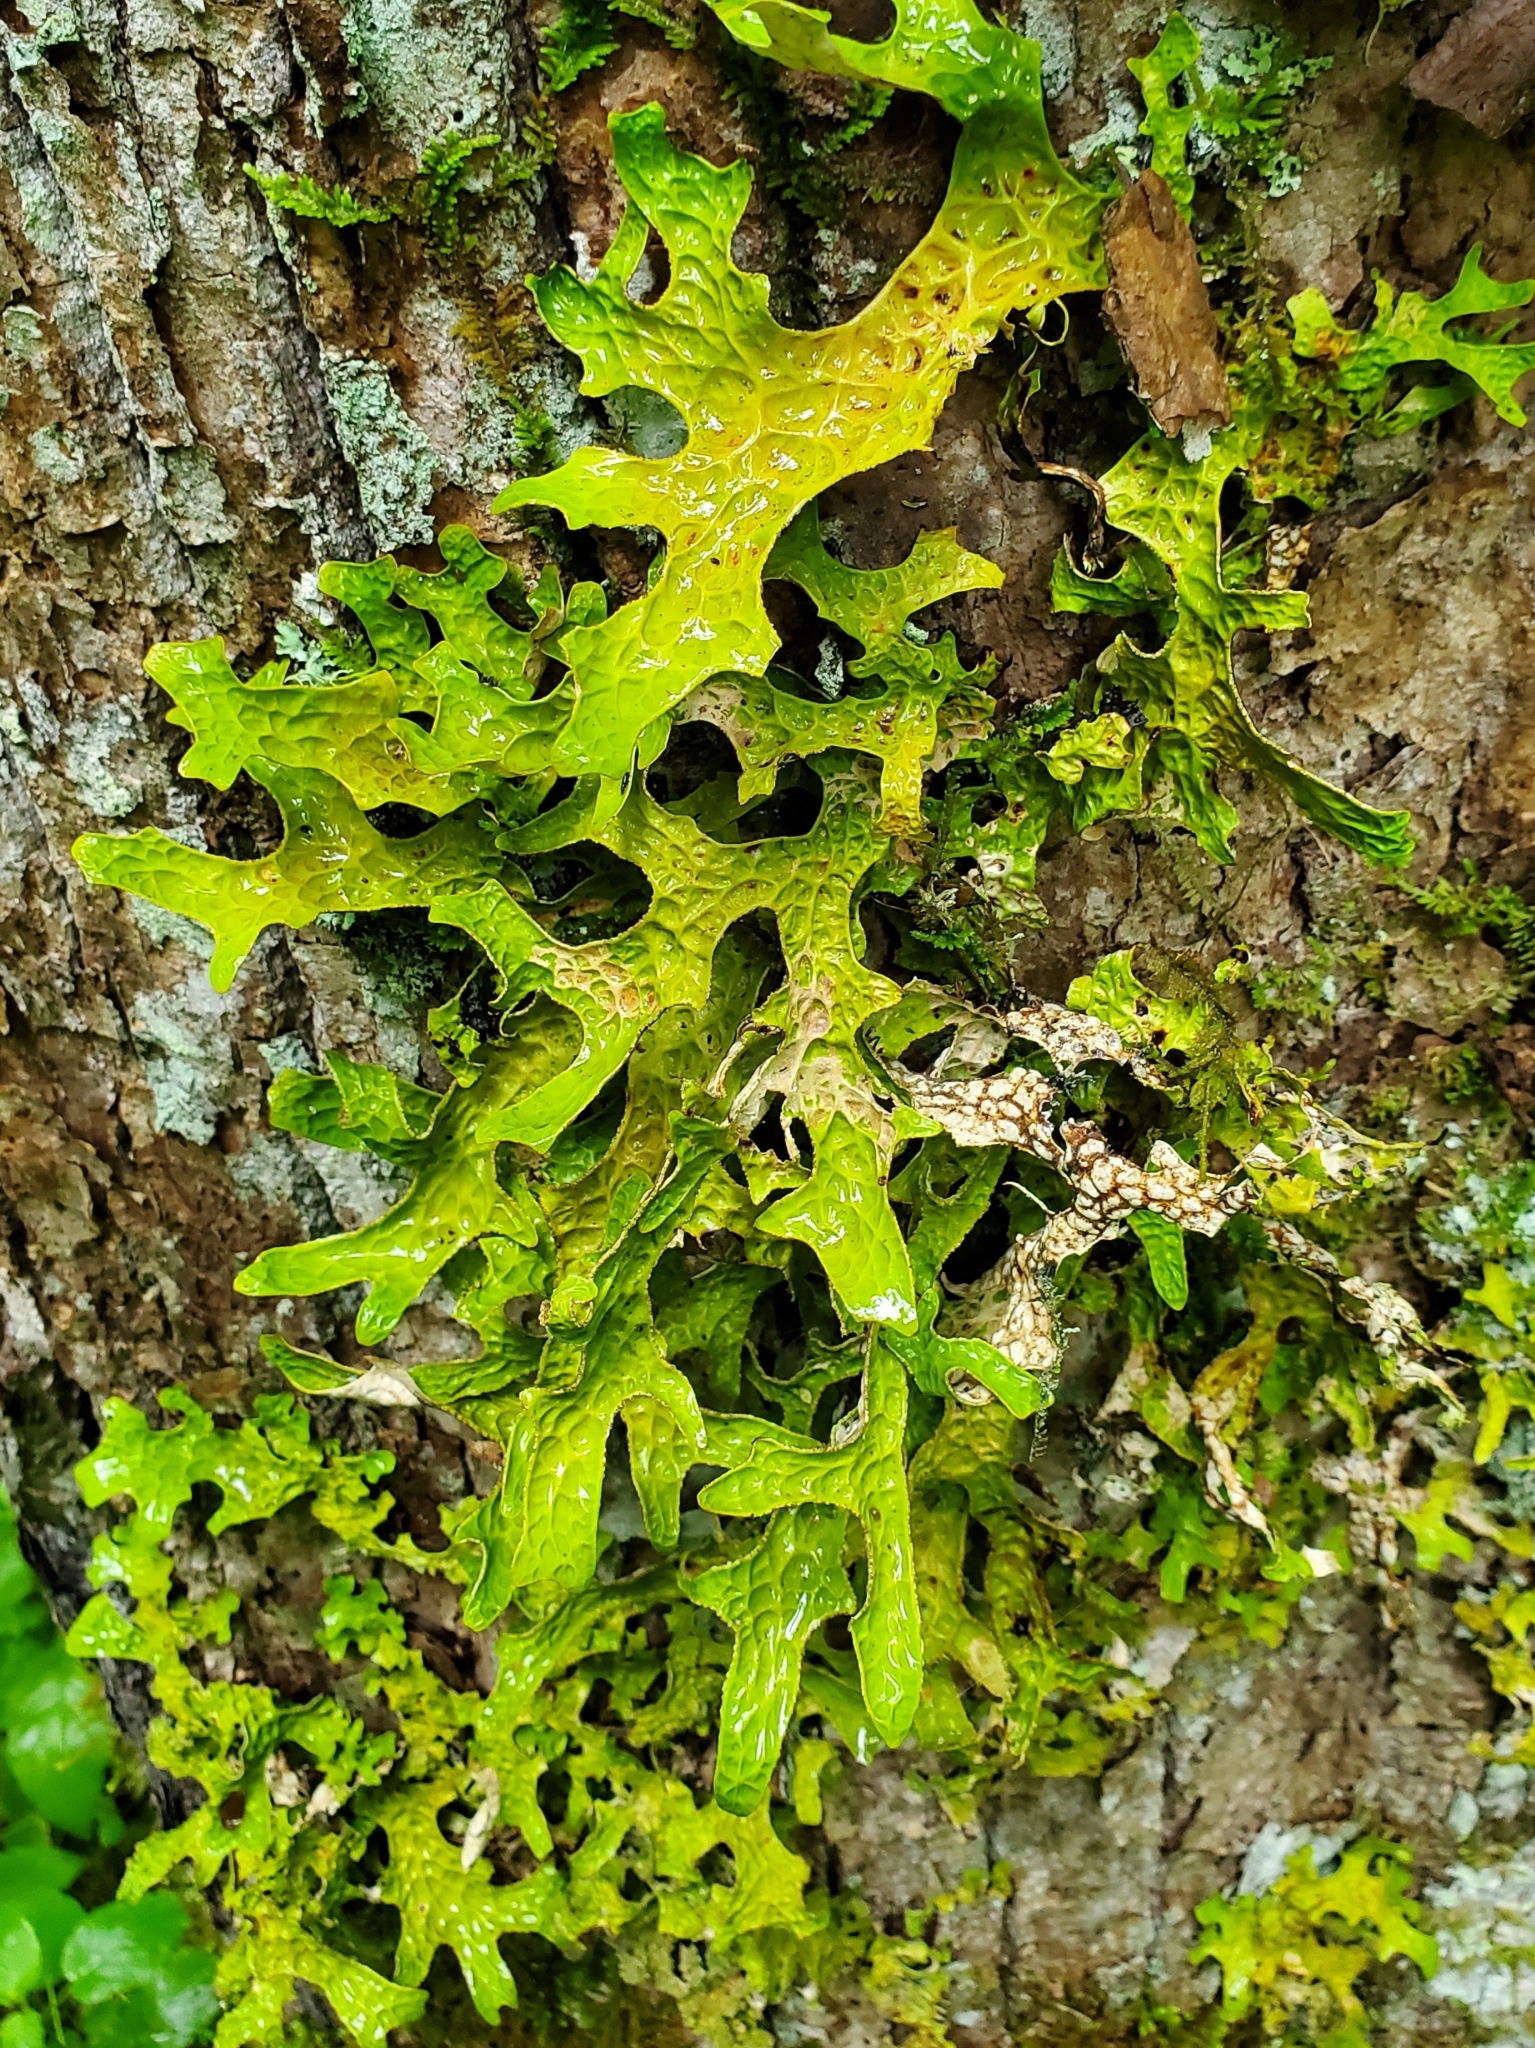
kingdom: Fungi
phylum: Ascomycota
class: Lecanoromycetes
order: Peltigerales
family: Lobariaceae
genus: Lobaria
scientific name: Lobaria pulmonaria
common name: Lungwort
